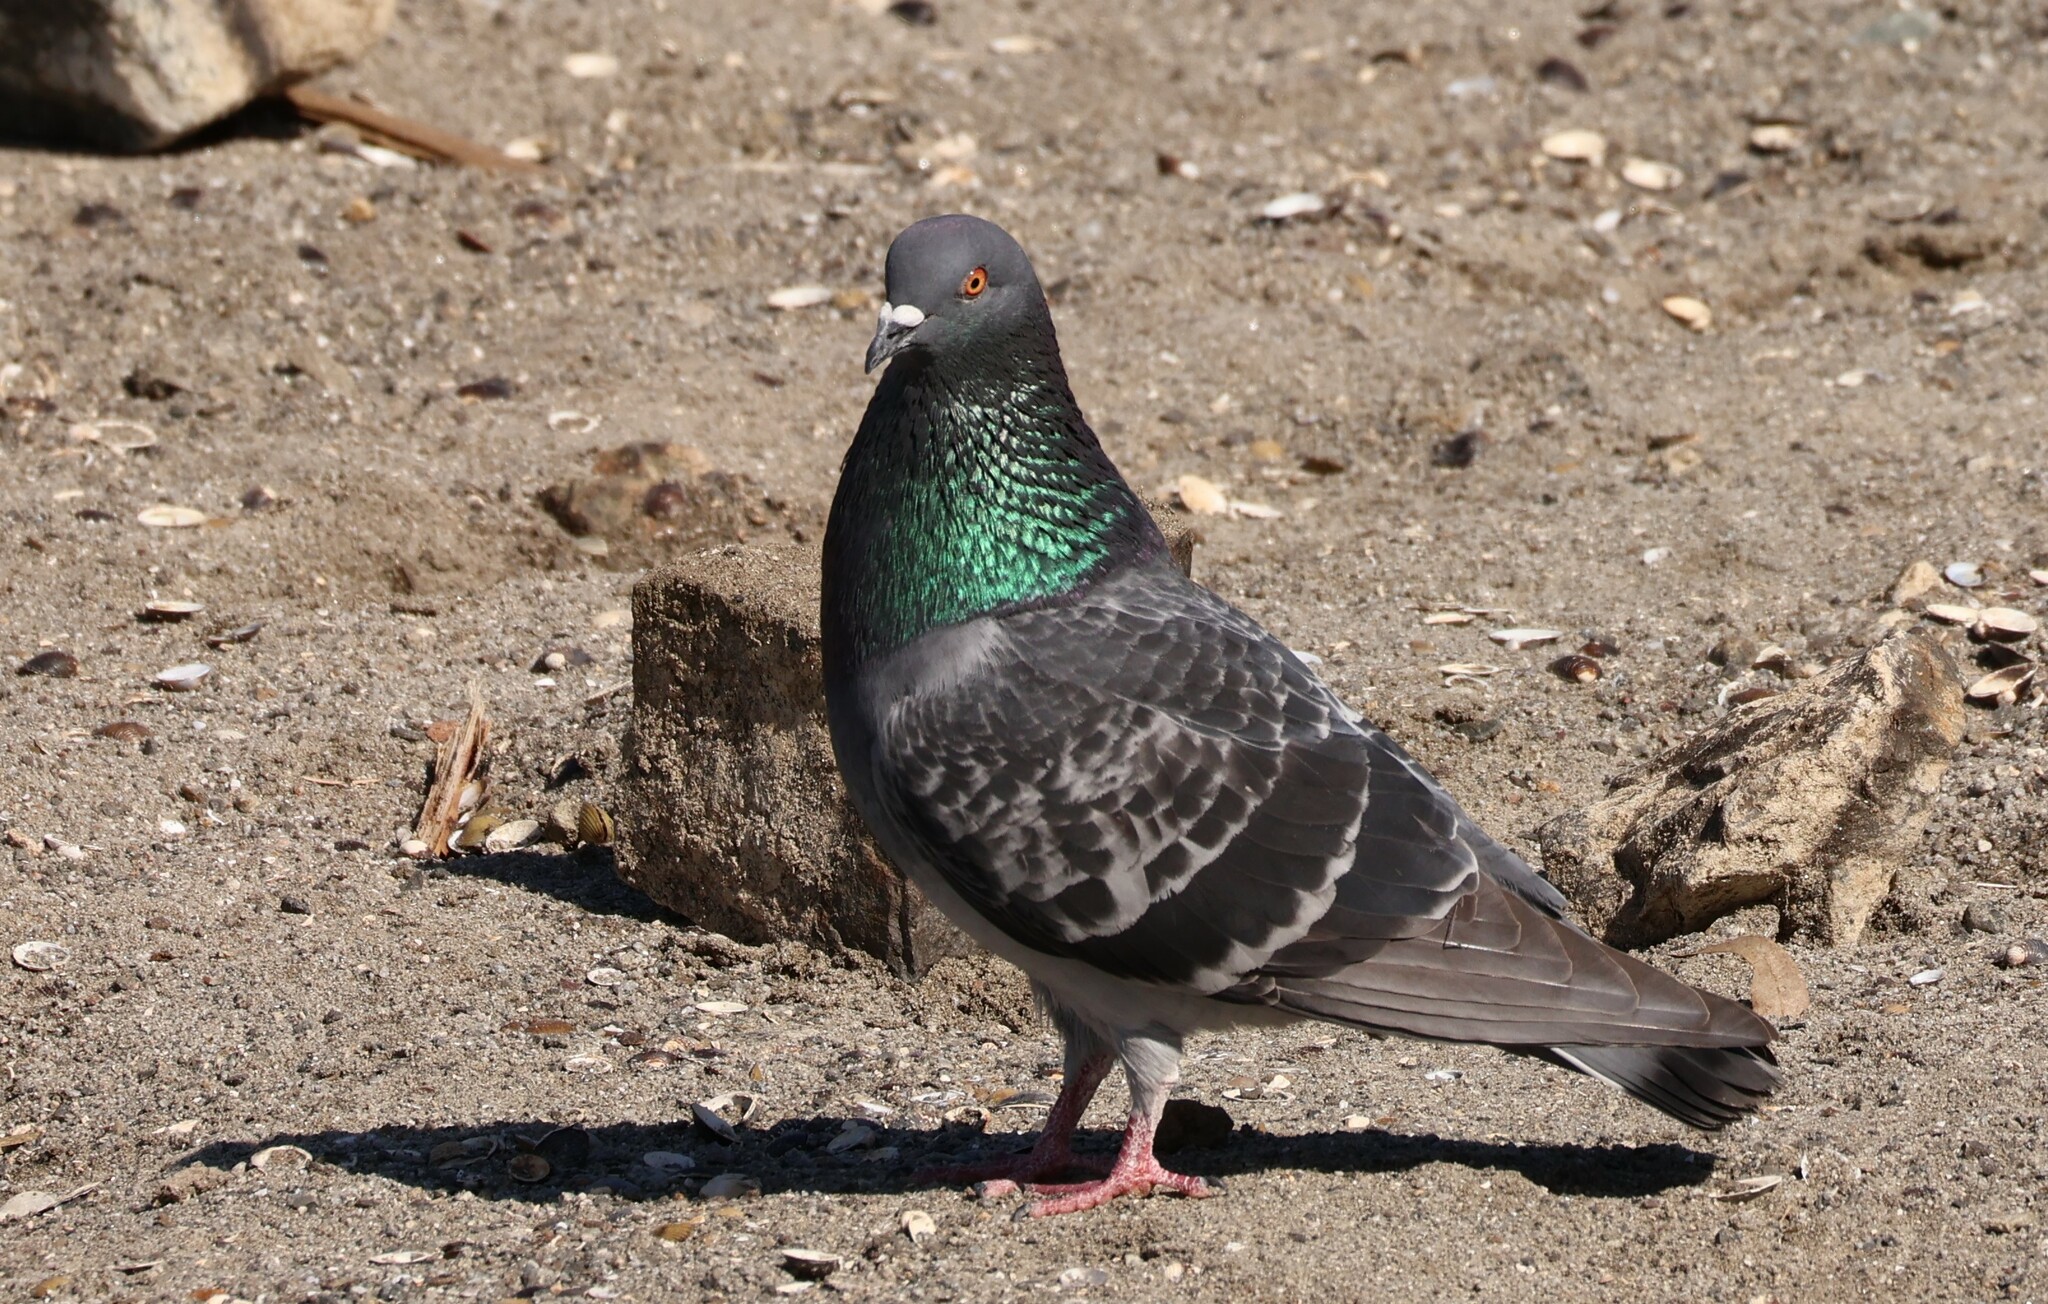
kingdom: Animalia
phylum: Chordata
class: Aves
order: Columbiformes
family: Columbidae
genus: Columba
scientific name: Columba livia
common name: Rock pigeon
